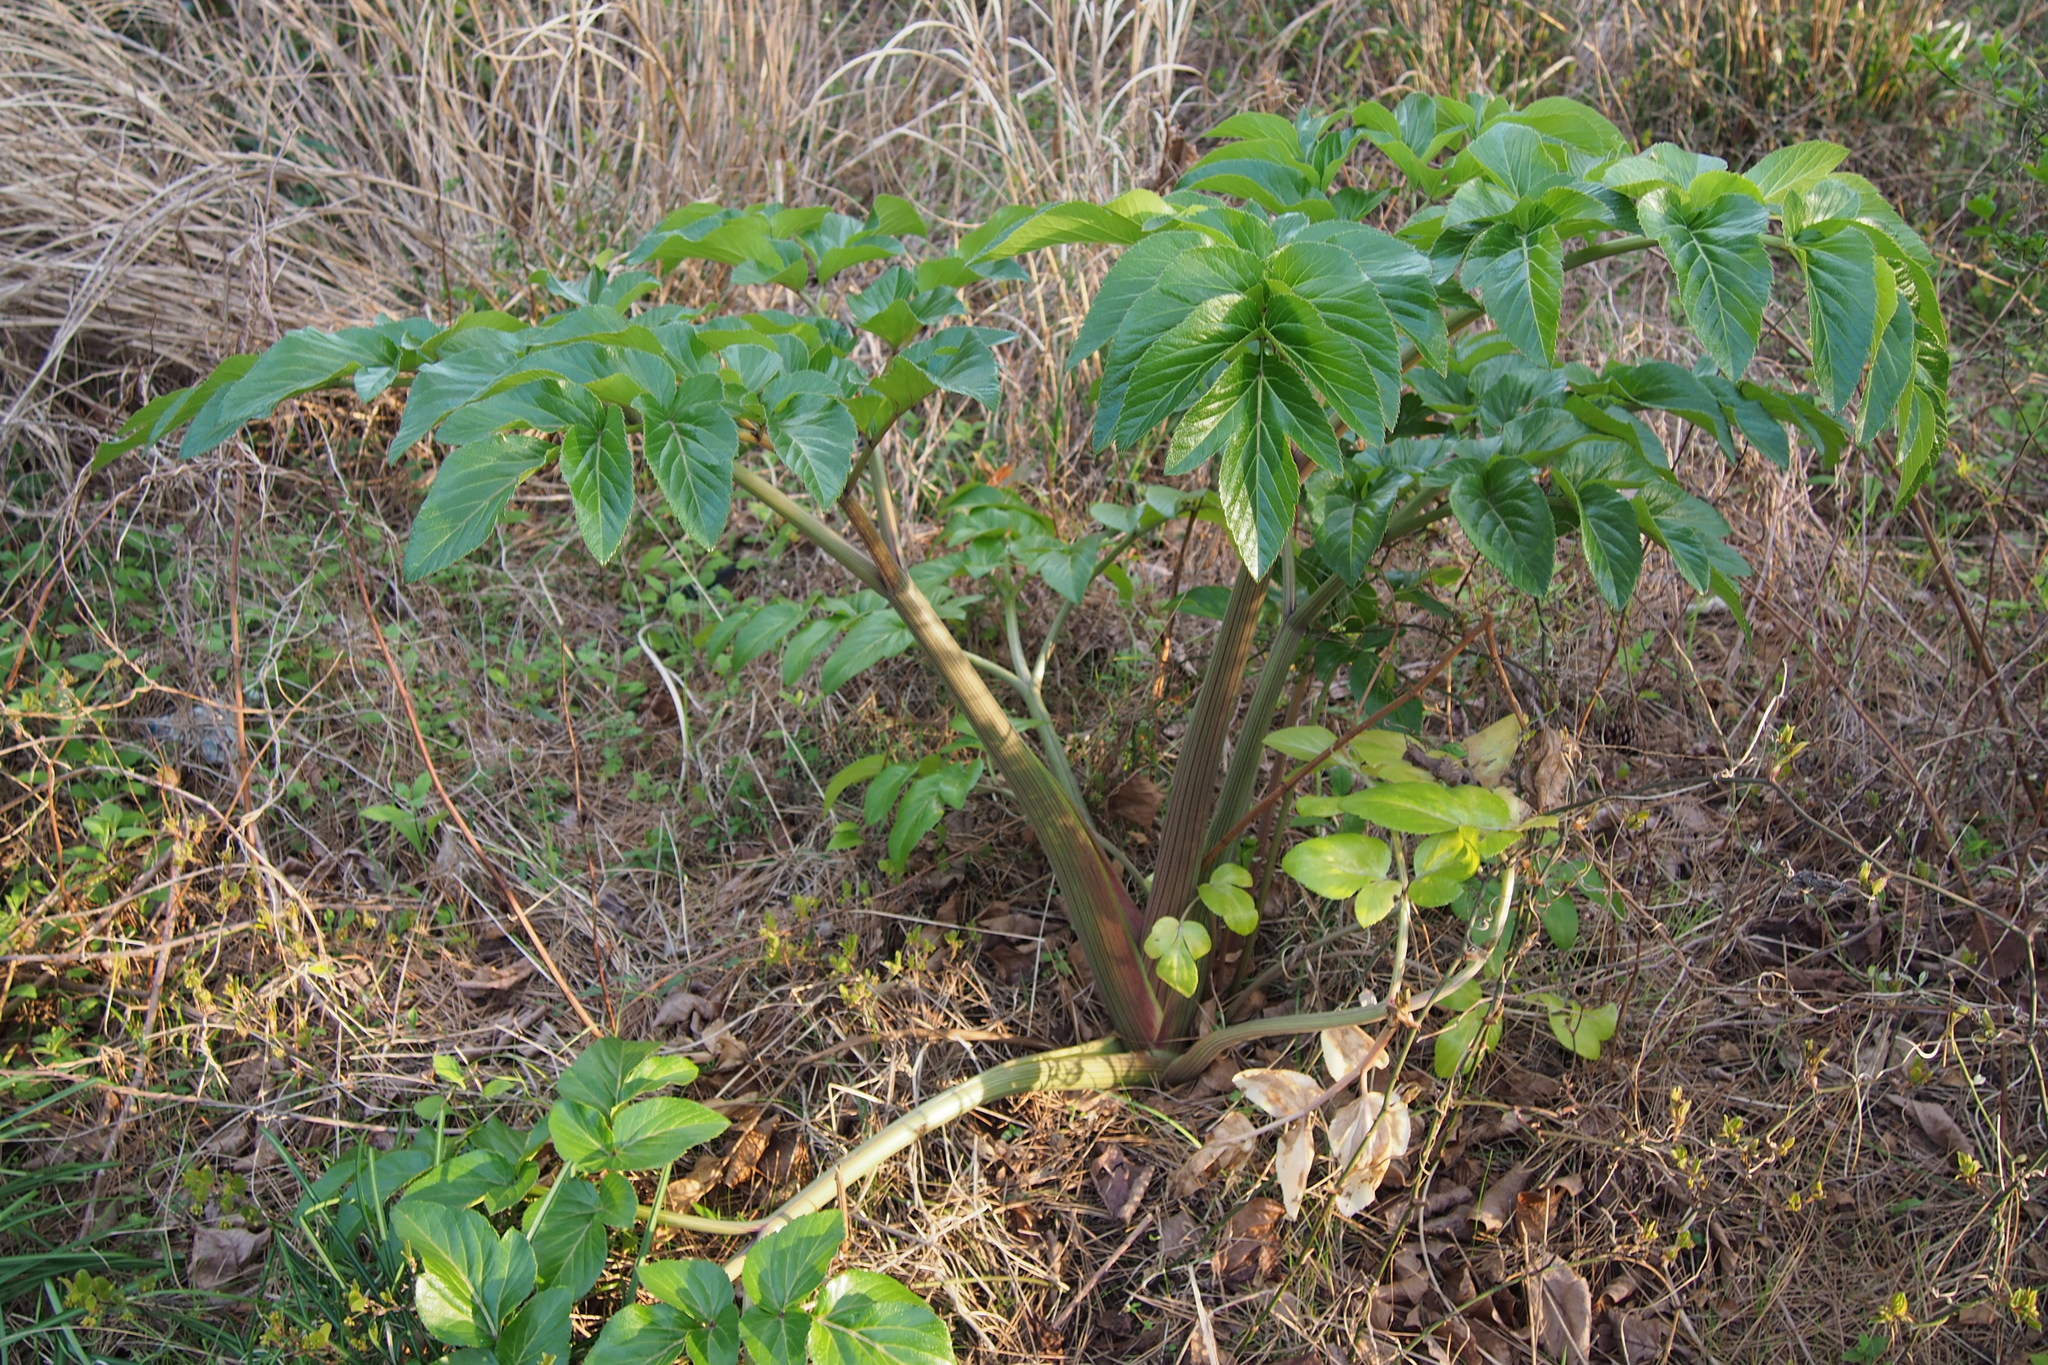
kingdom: Plantae
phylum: Tracheophyta
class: Magnoliopsida
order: Apiales
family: Apiaceae
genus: Angelica
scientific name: Angelica japonica
